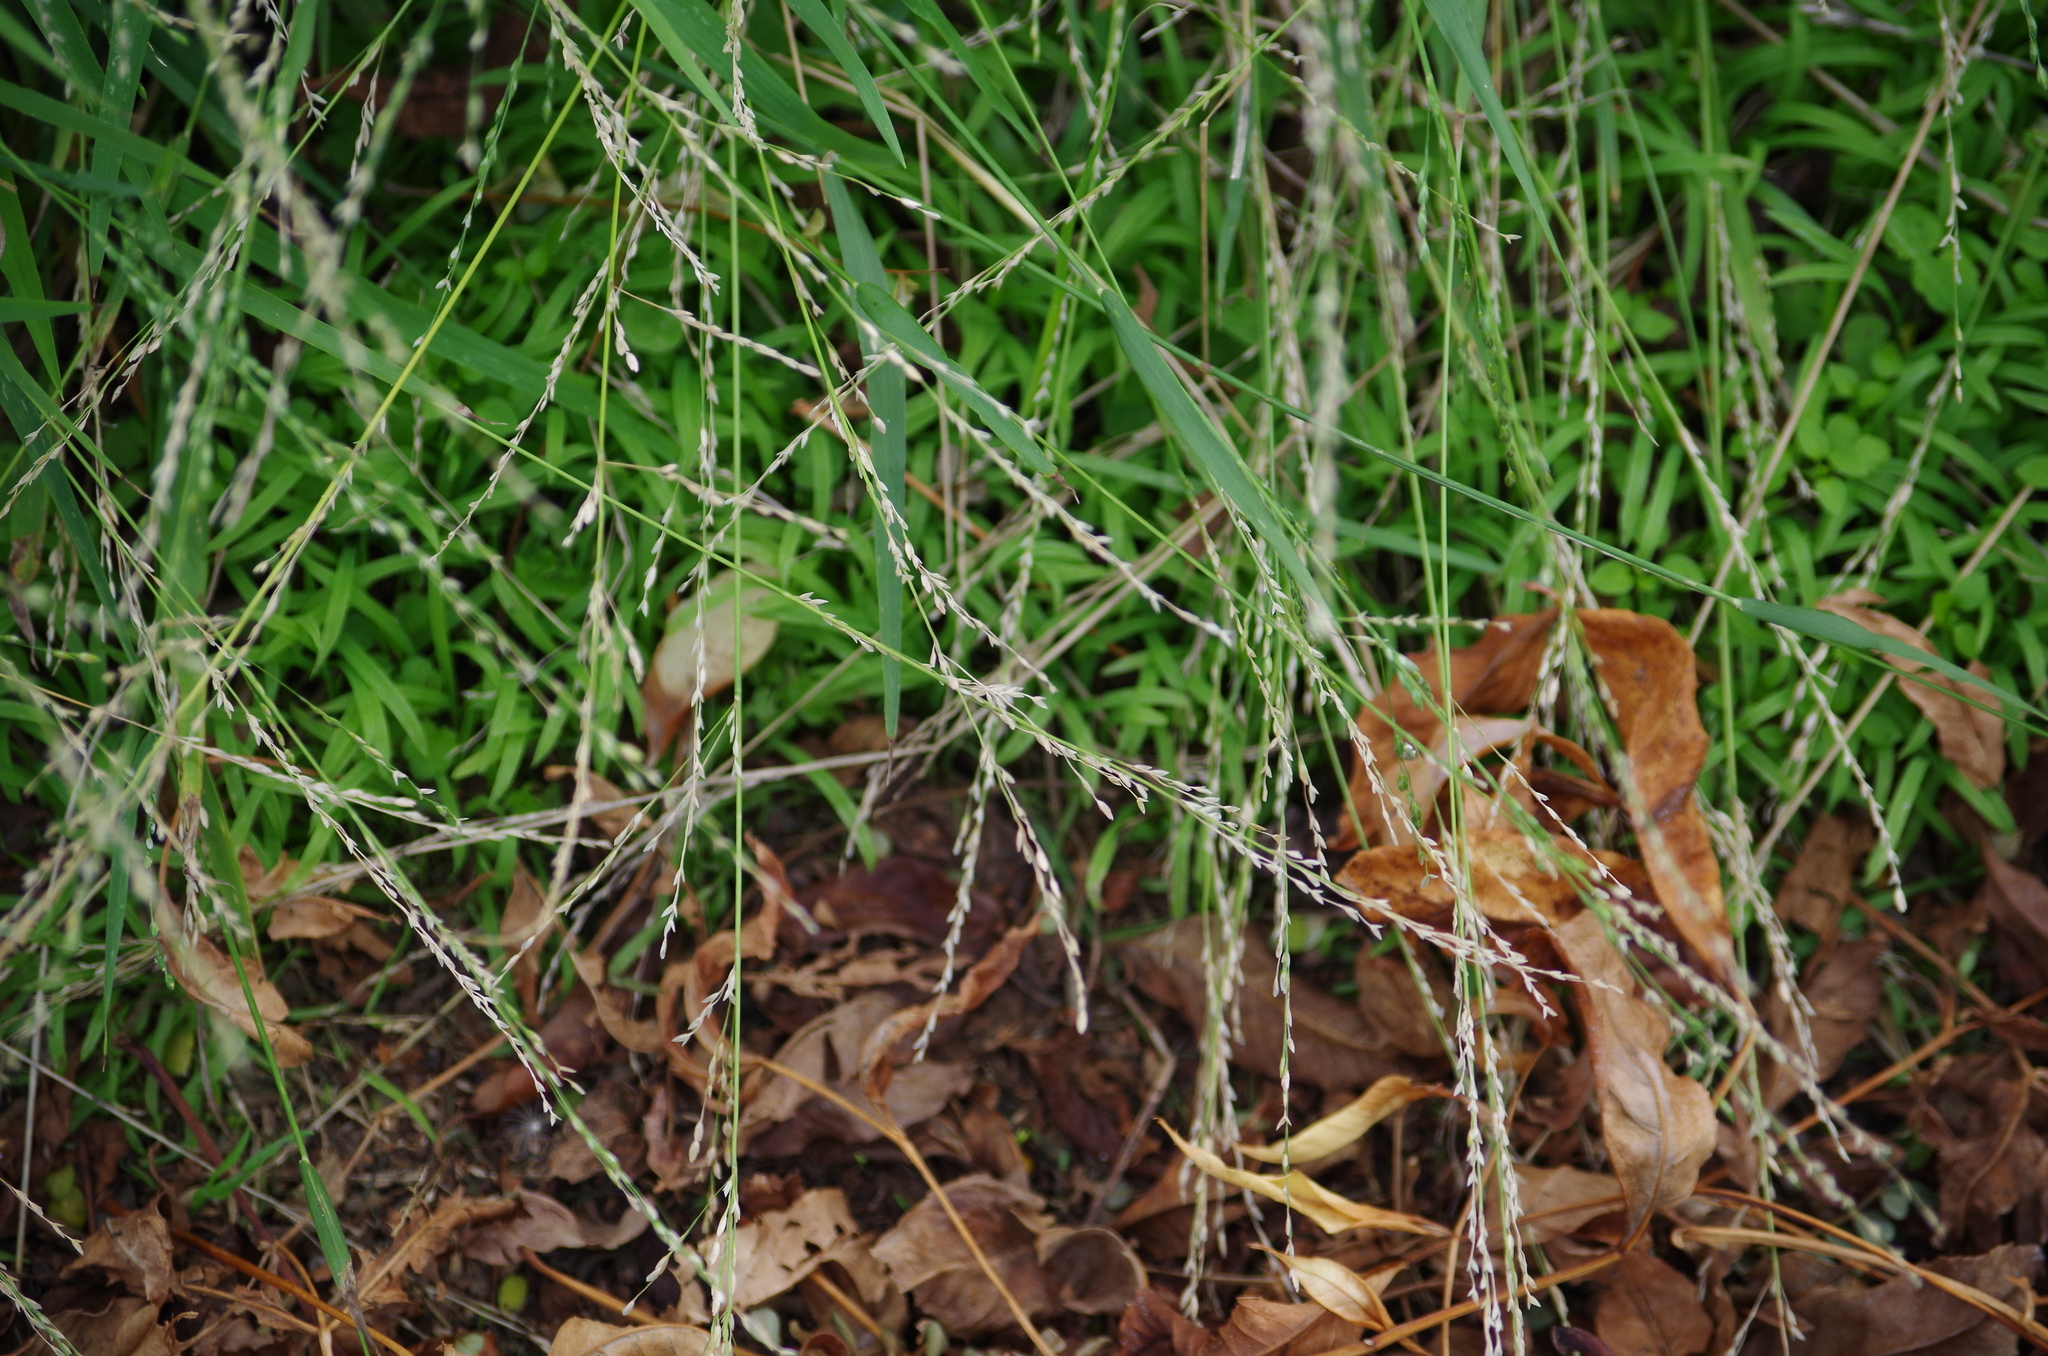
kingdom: Plantae
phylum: Tracheophyta
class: Liliopsida
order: Poales
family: Poaceae
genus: Ehrharta
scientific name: Ehrharta erecta
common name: Panic veldtgrass
